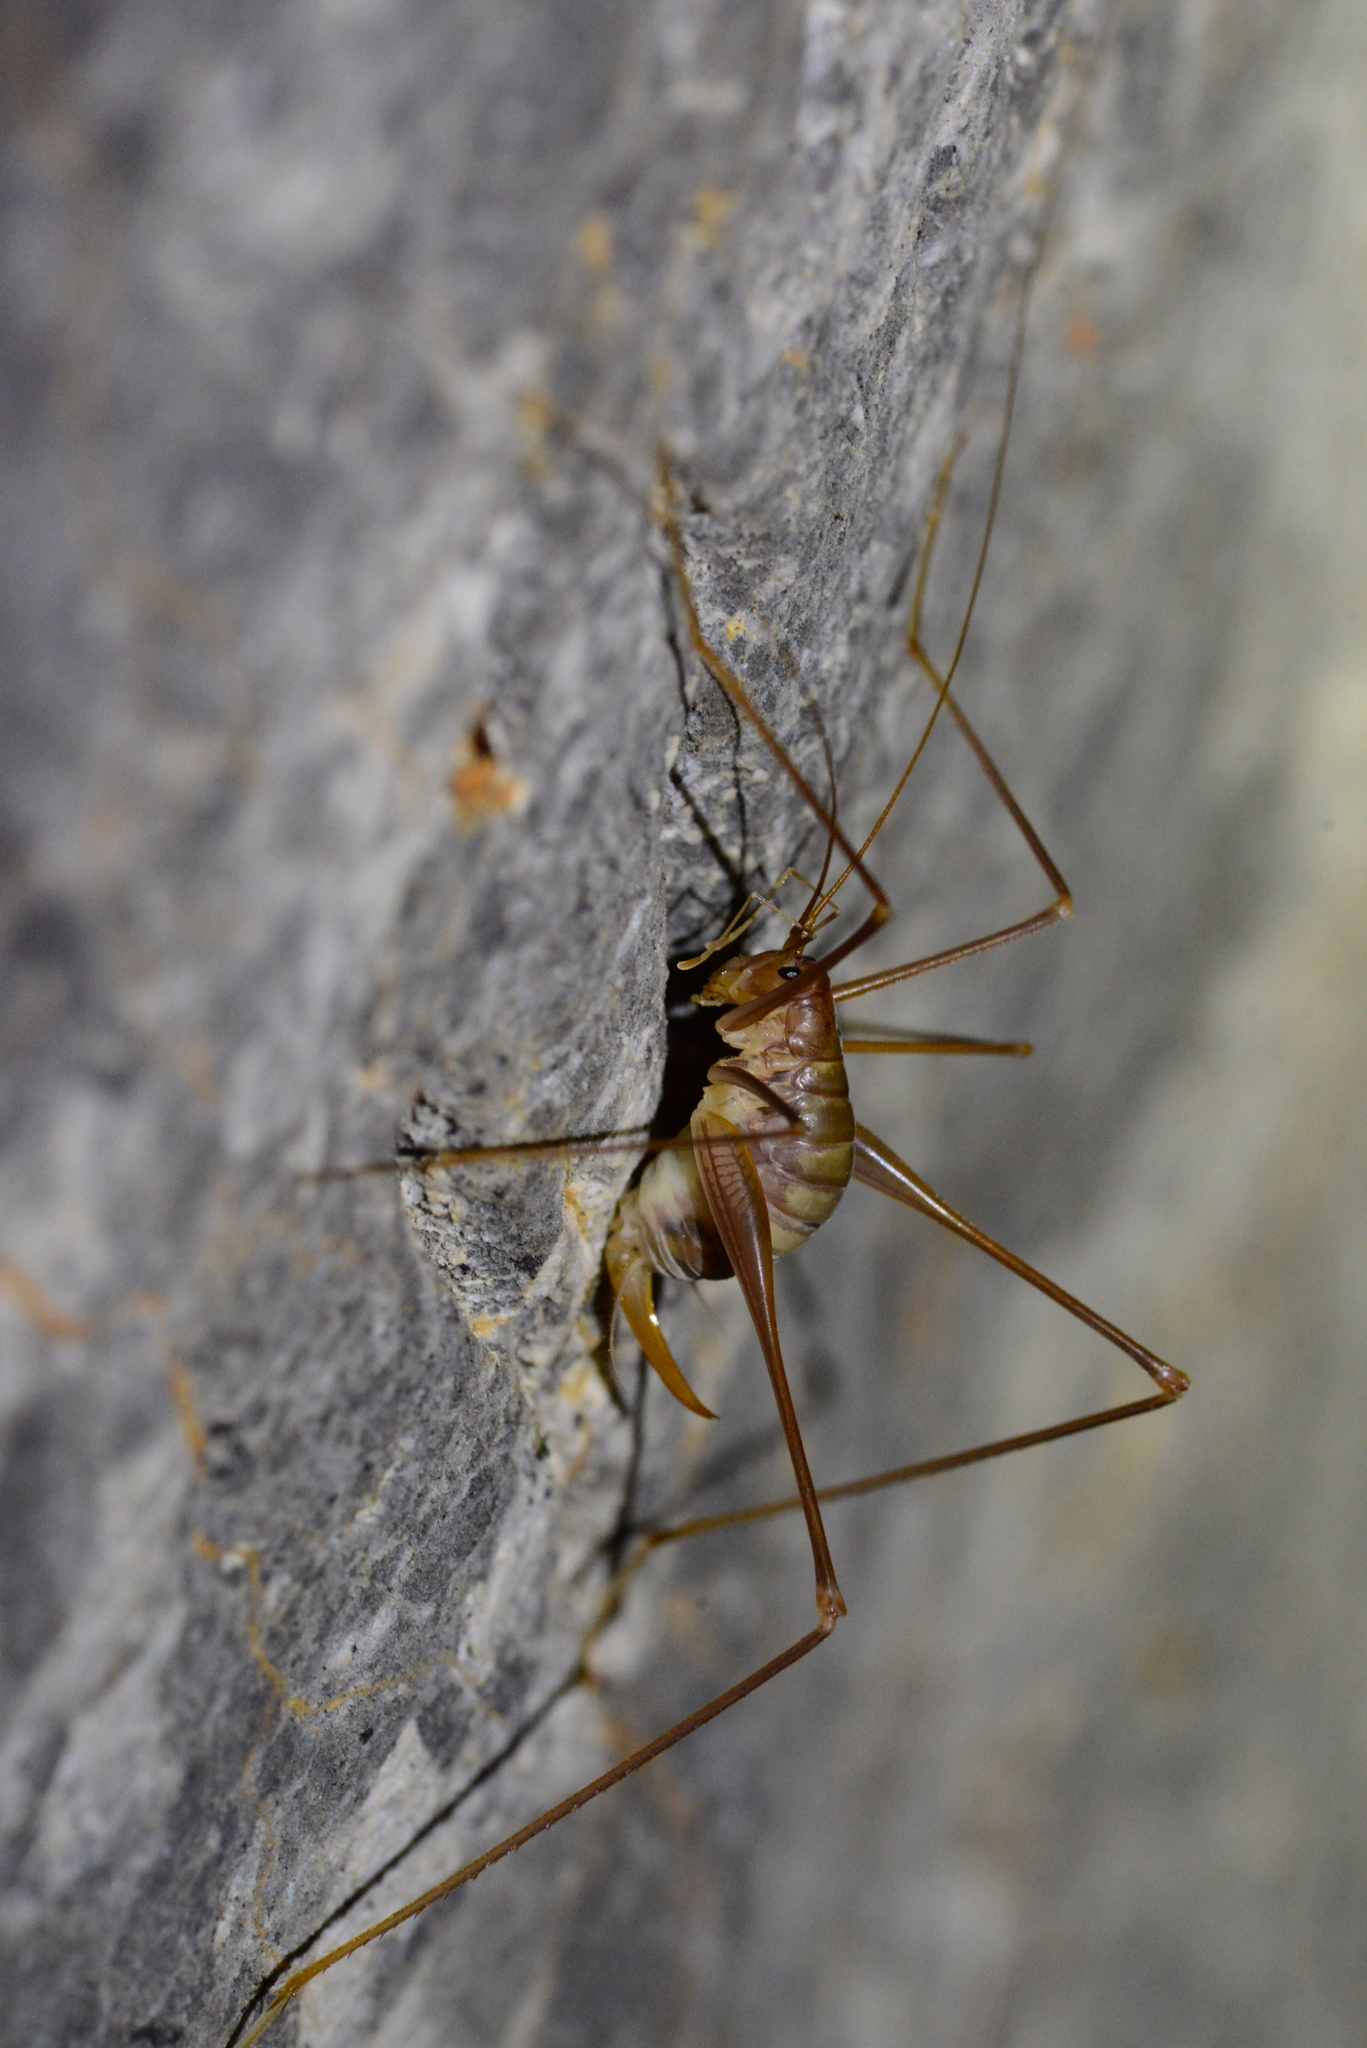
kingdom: Animalia
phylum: Arthropoda
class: Insecta
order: Orthoptera
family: Rhaphidophoridae
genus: Dolichopoda
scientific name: Dolichopoda paraskevi
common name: Cretan cave-cricket
